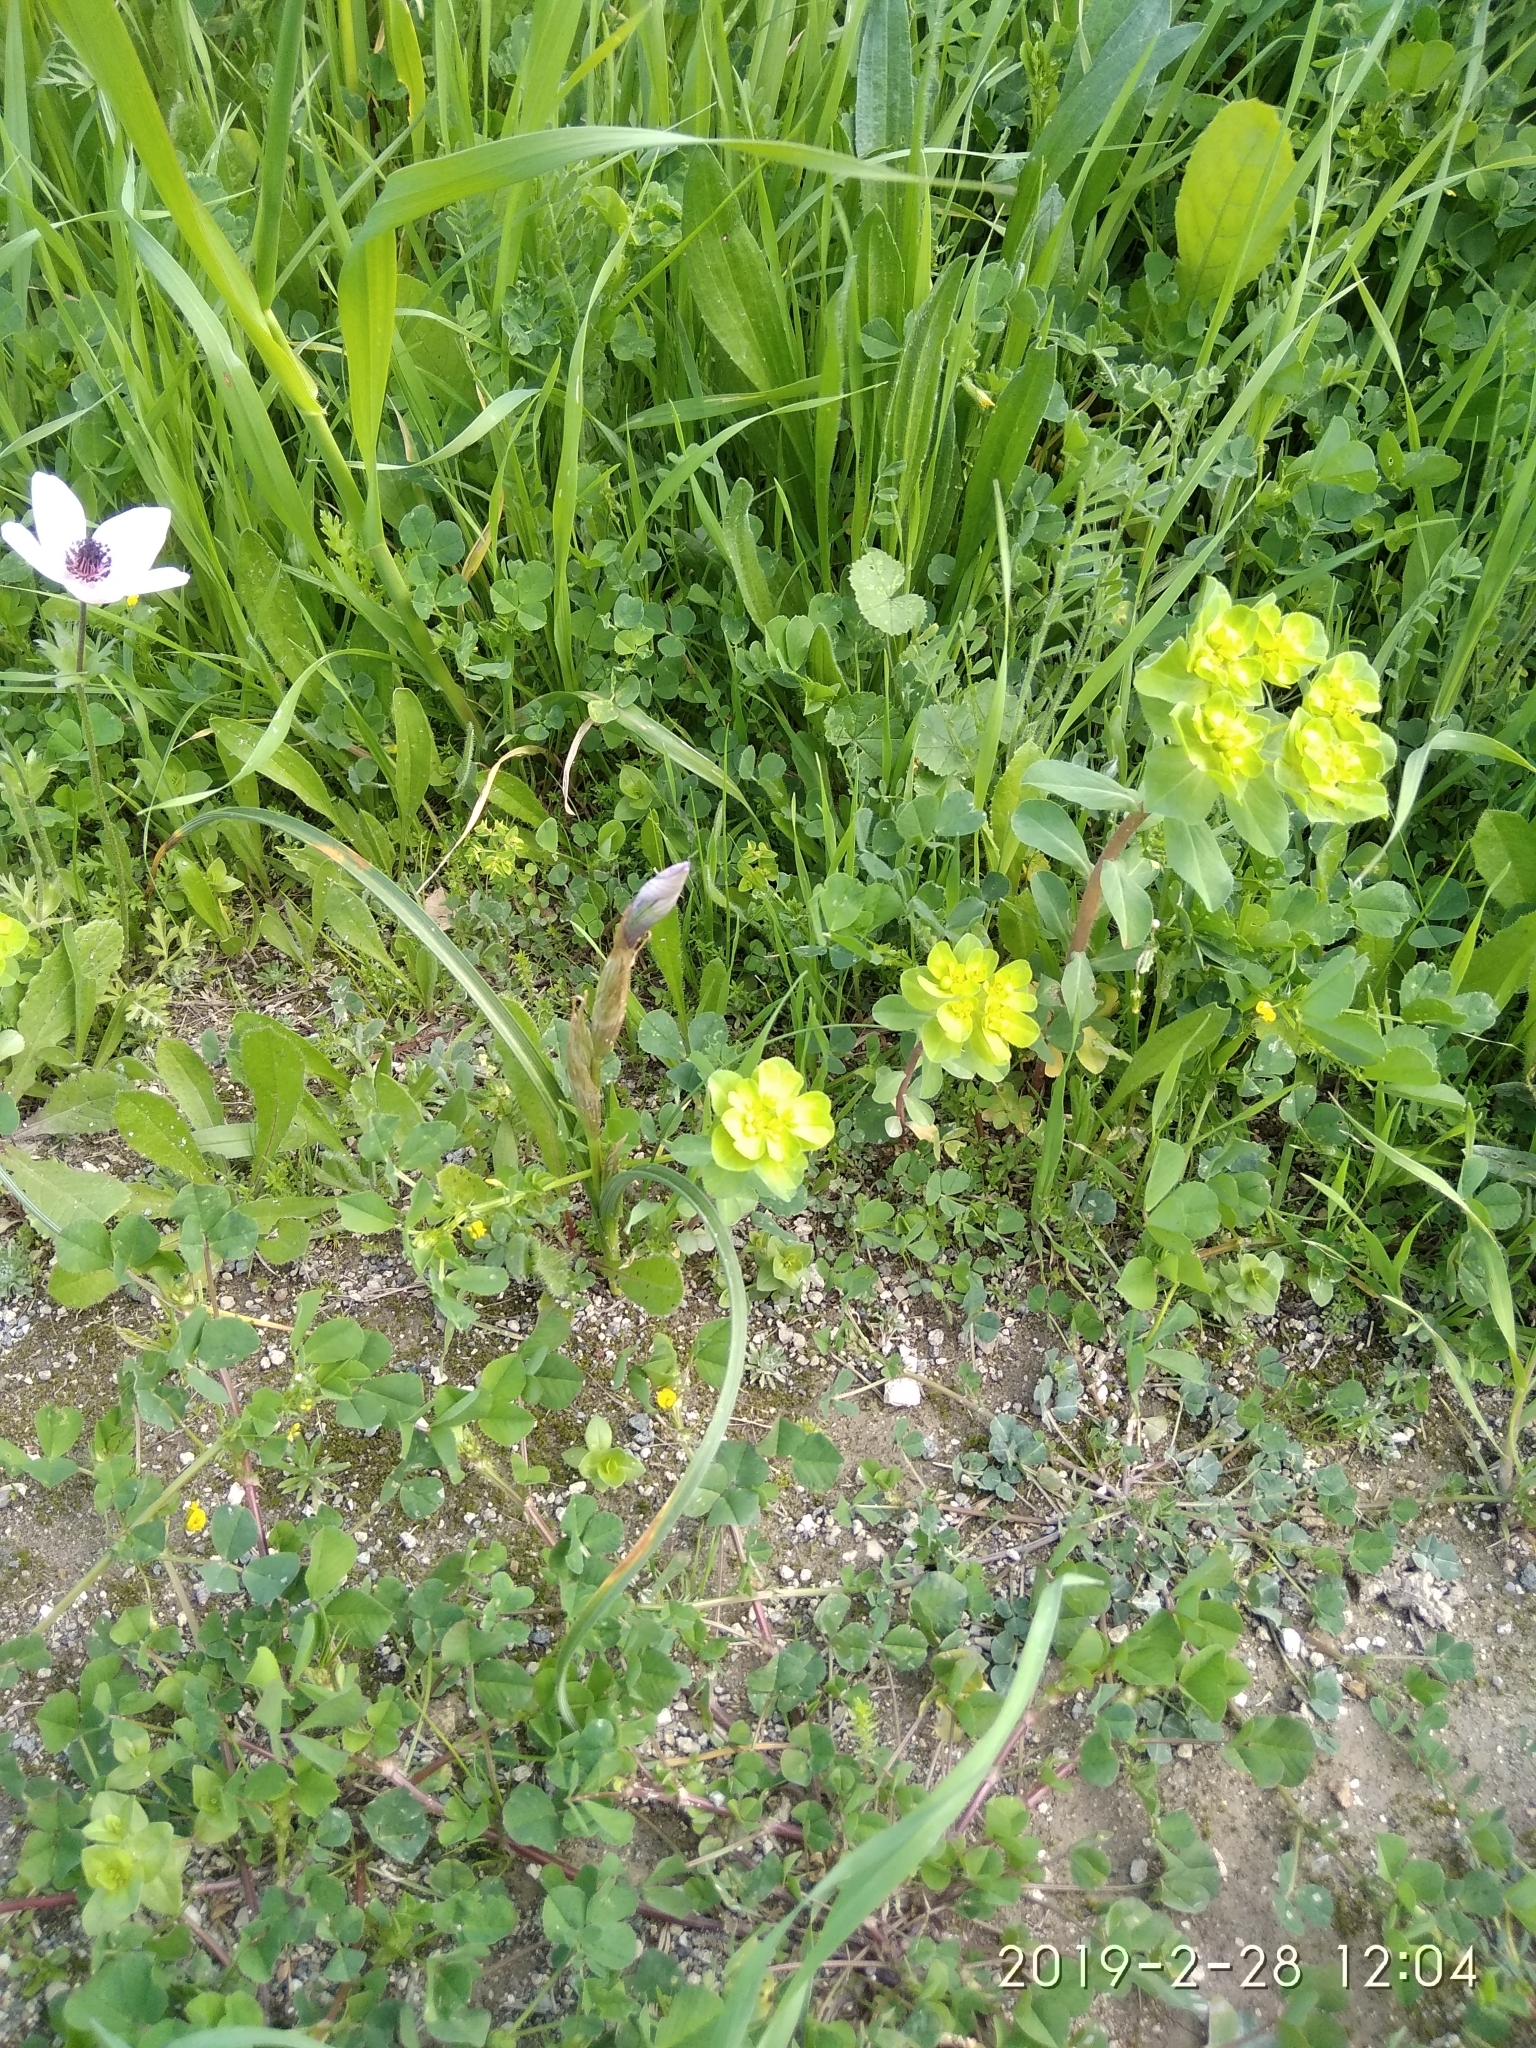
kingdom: Plantae
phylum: Tracheophyta
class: Liliopsida
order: Asparagales
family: Iridaceae
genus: Moraea
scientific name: Moraea sisyrinchium
